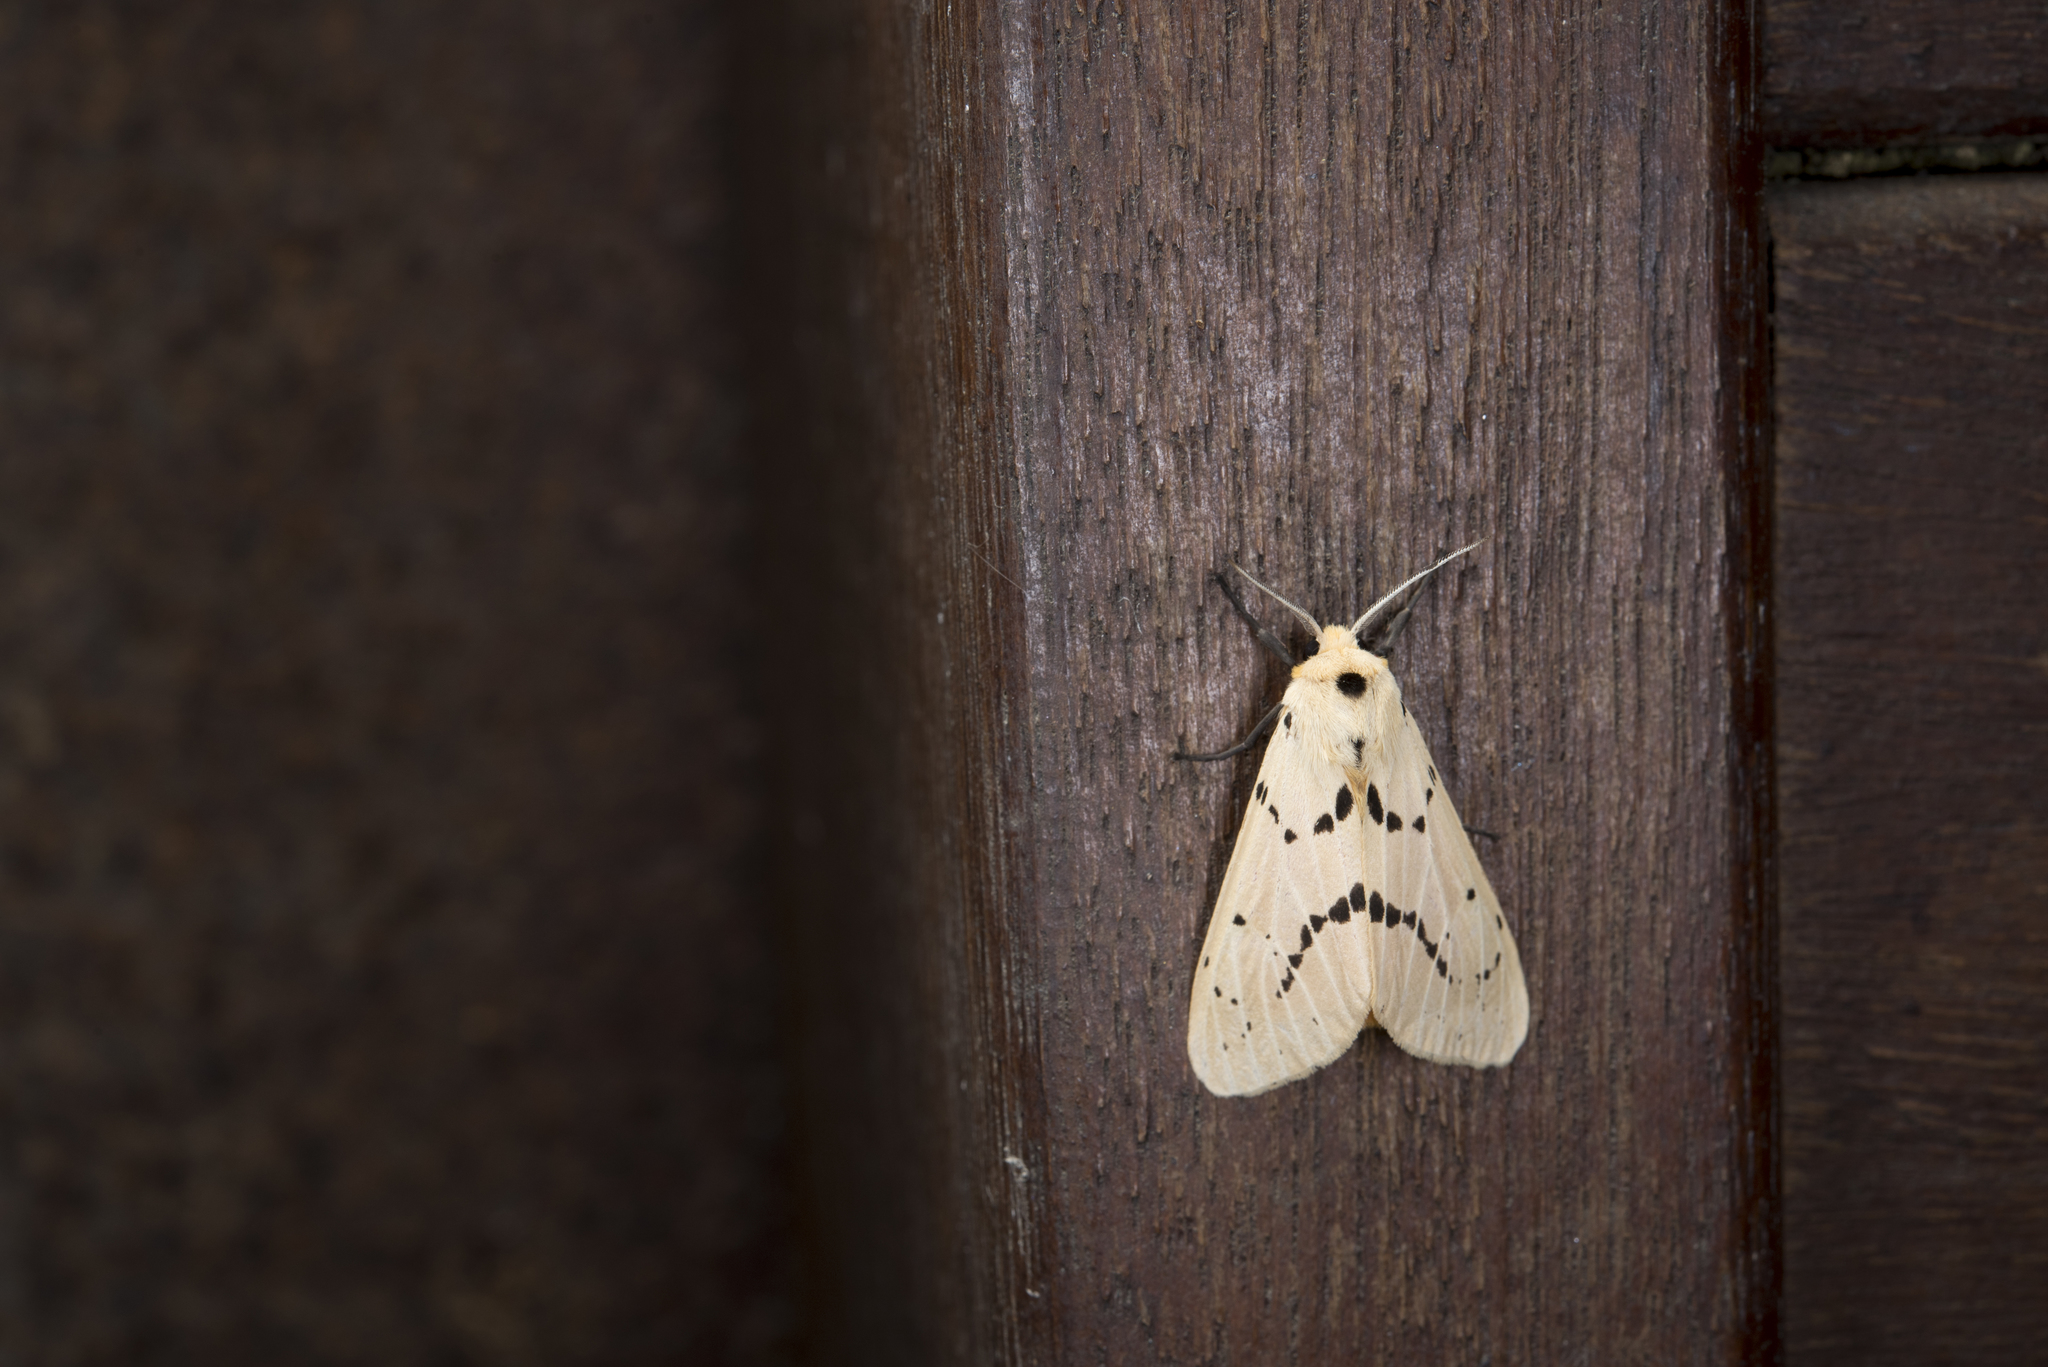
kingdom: Animalia
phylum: Arthropoda
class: Insecta
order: Lepidoptera
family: Erebidae
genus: Spilarctia
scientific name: Spilarctia postrubida
